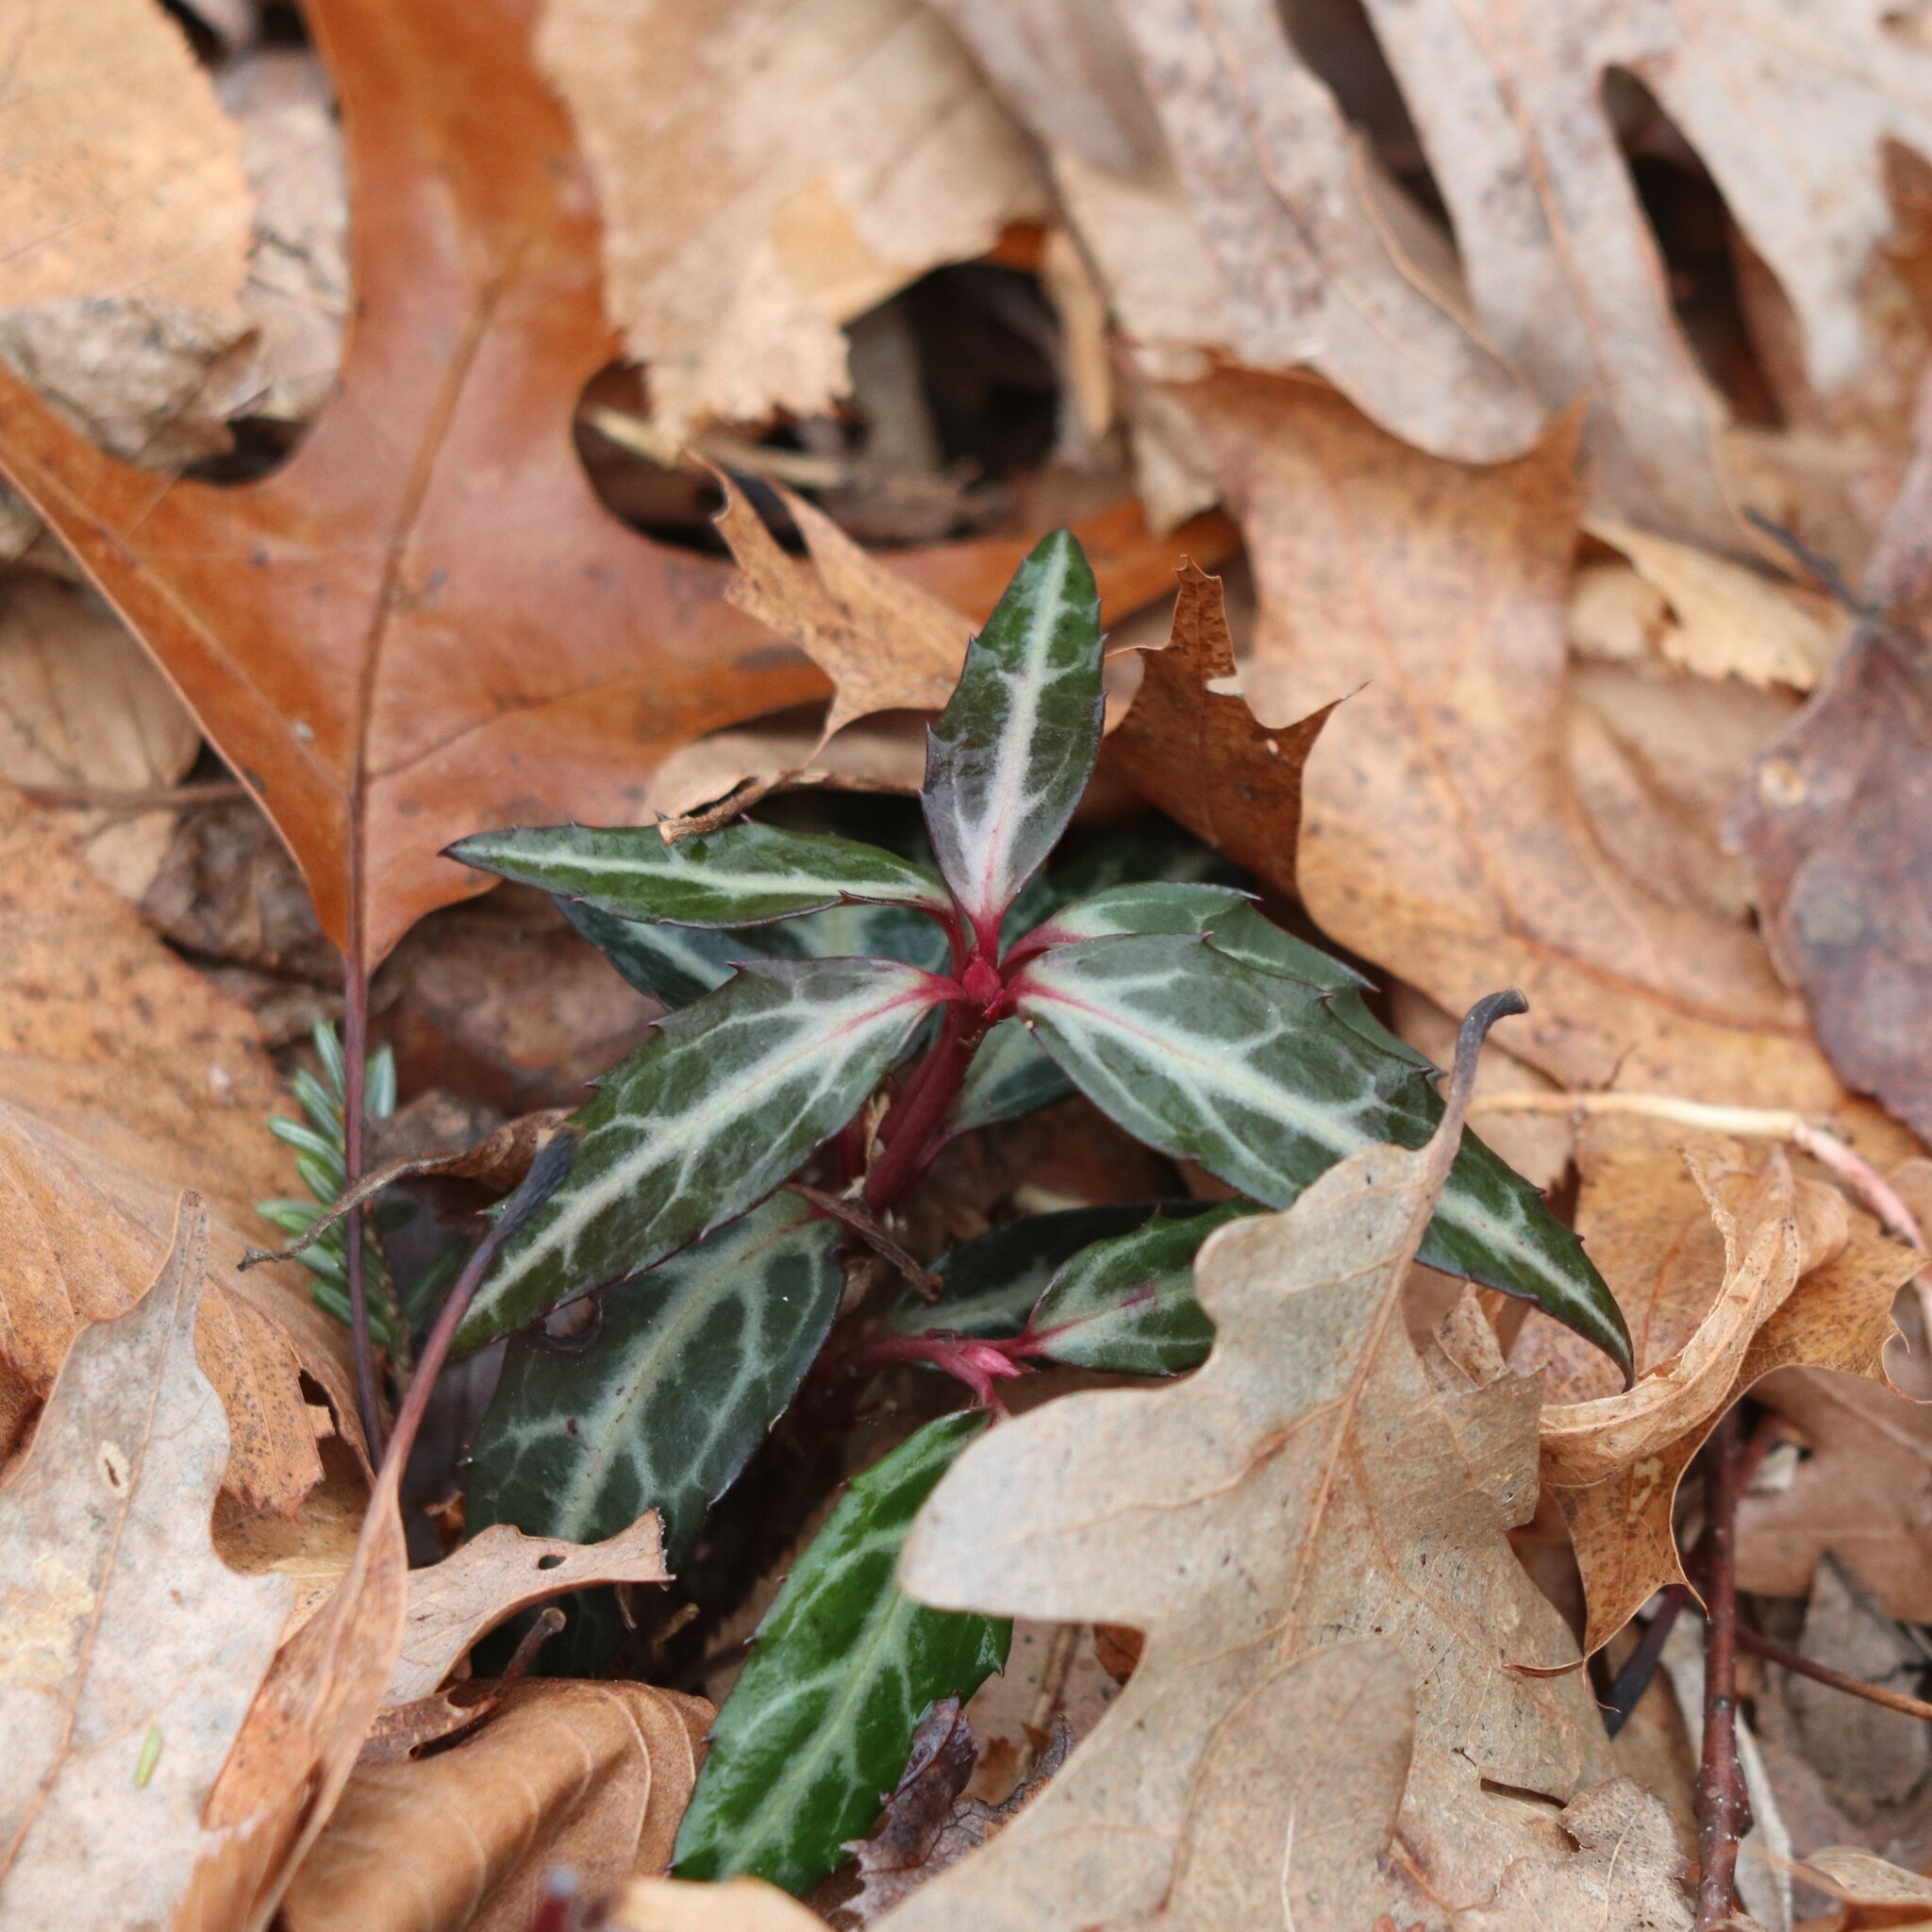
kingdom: Plantae
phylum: Tracheophyta
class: Magnoliopsida
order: Ericales
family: Ericaceae
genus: Chimaphila
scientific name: Chimaphila maculata
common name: Spotted pipsissewa
